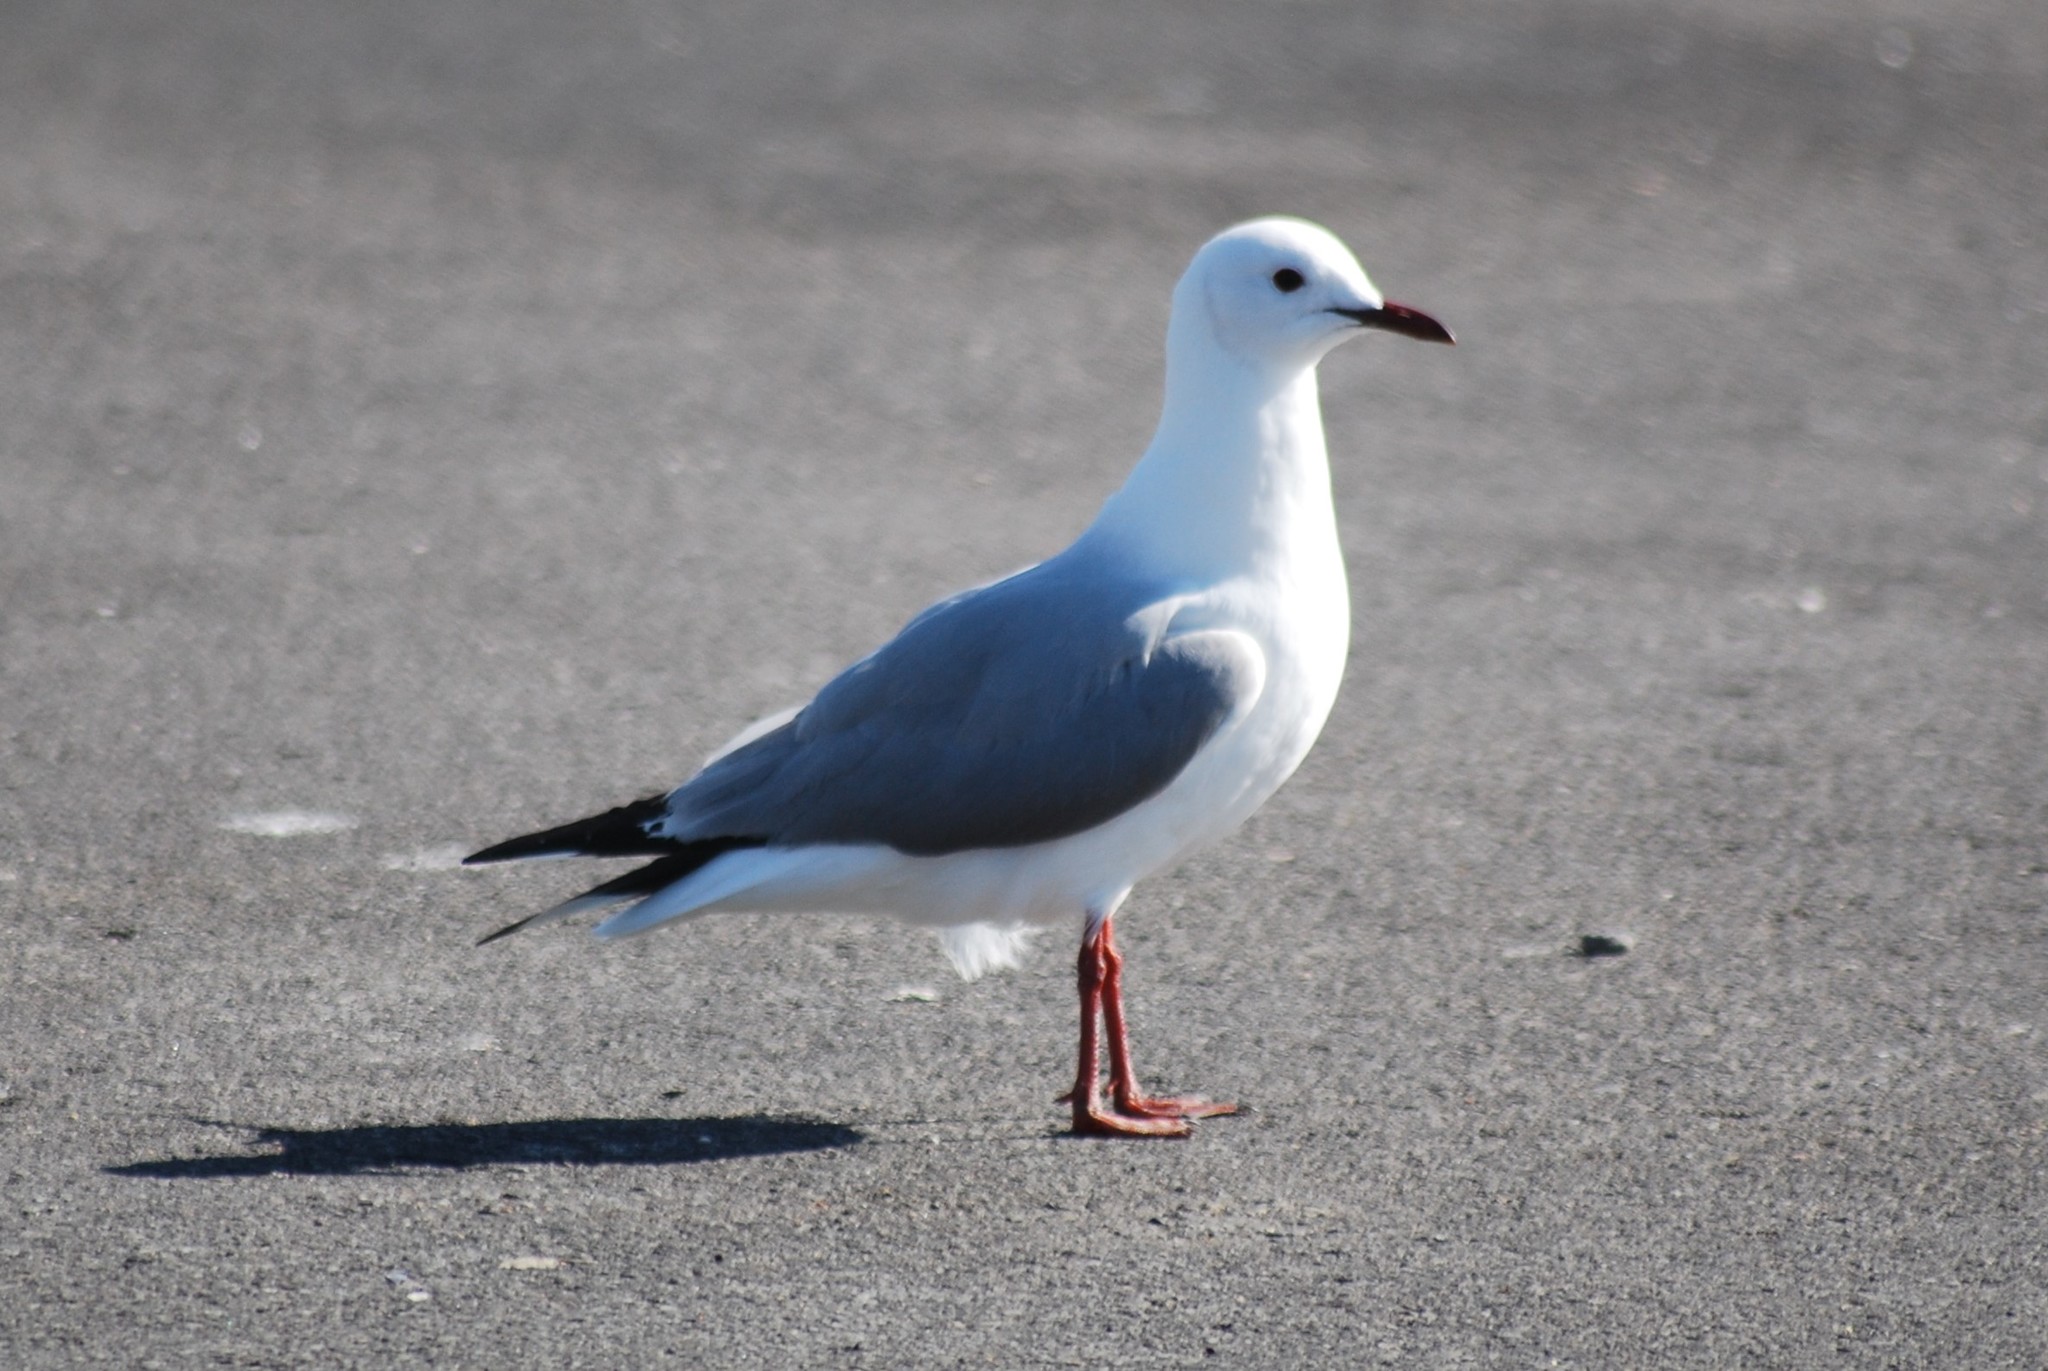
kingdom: Animalia
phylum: Chordata
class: Aves
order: Charadriiformes
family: Laridae
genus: Chroicocephalus
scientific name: Chroicocephalus hartlaubii
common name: Hartlaub's gull
